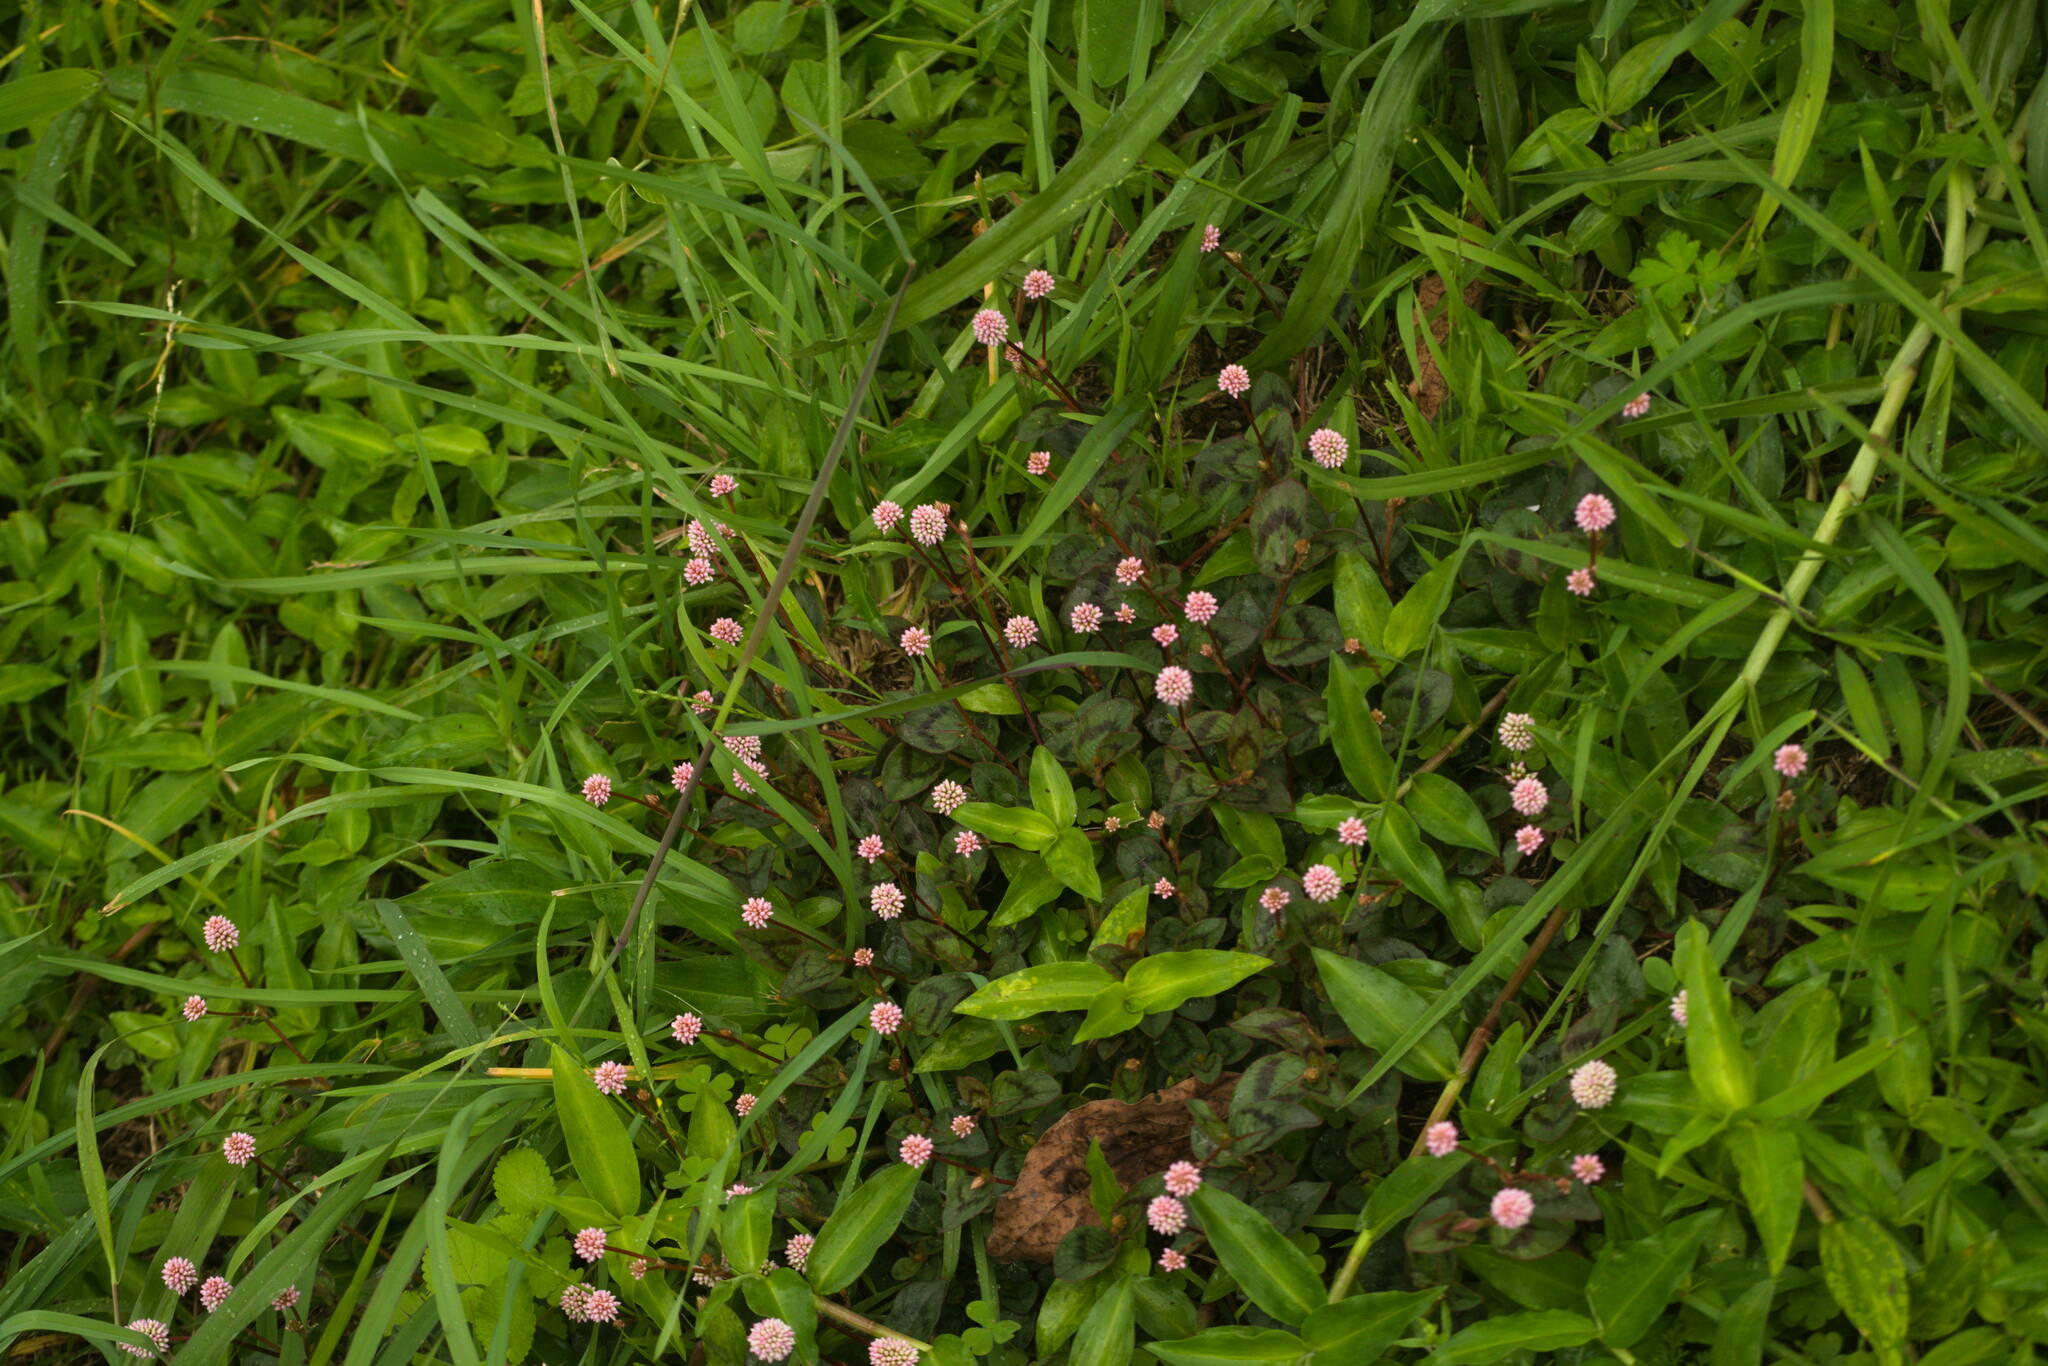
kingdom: Plantae
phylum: Tracheophyta
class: Magnoliopsida
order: Caryophyllales
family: Polygonaceae
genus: Persicaria
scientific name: Persicaria capitata
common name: Pinkhead smartweed
